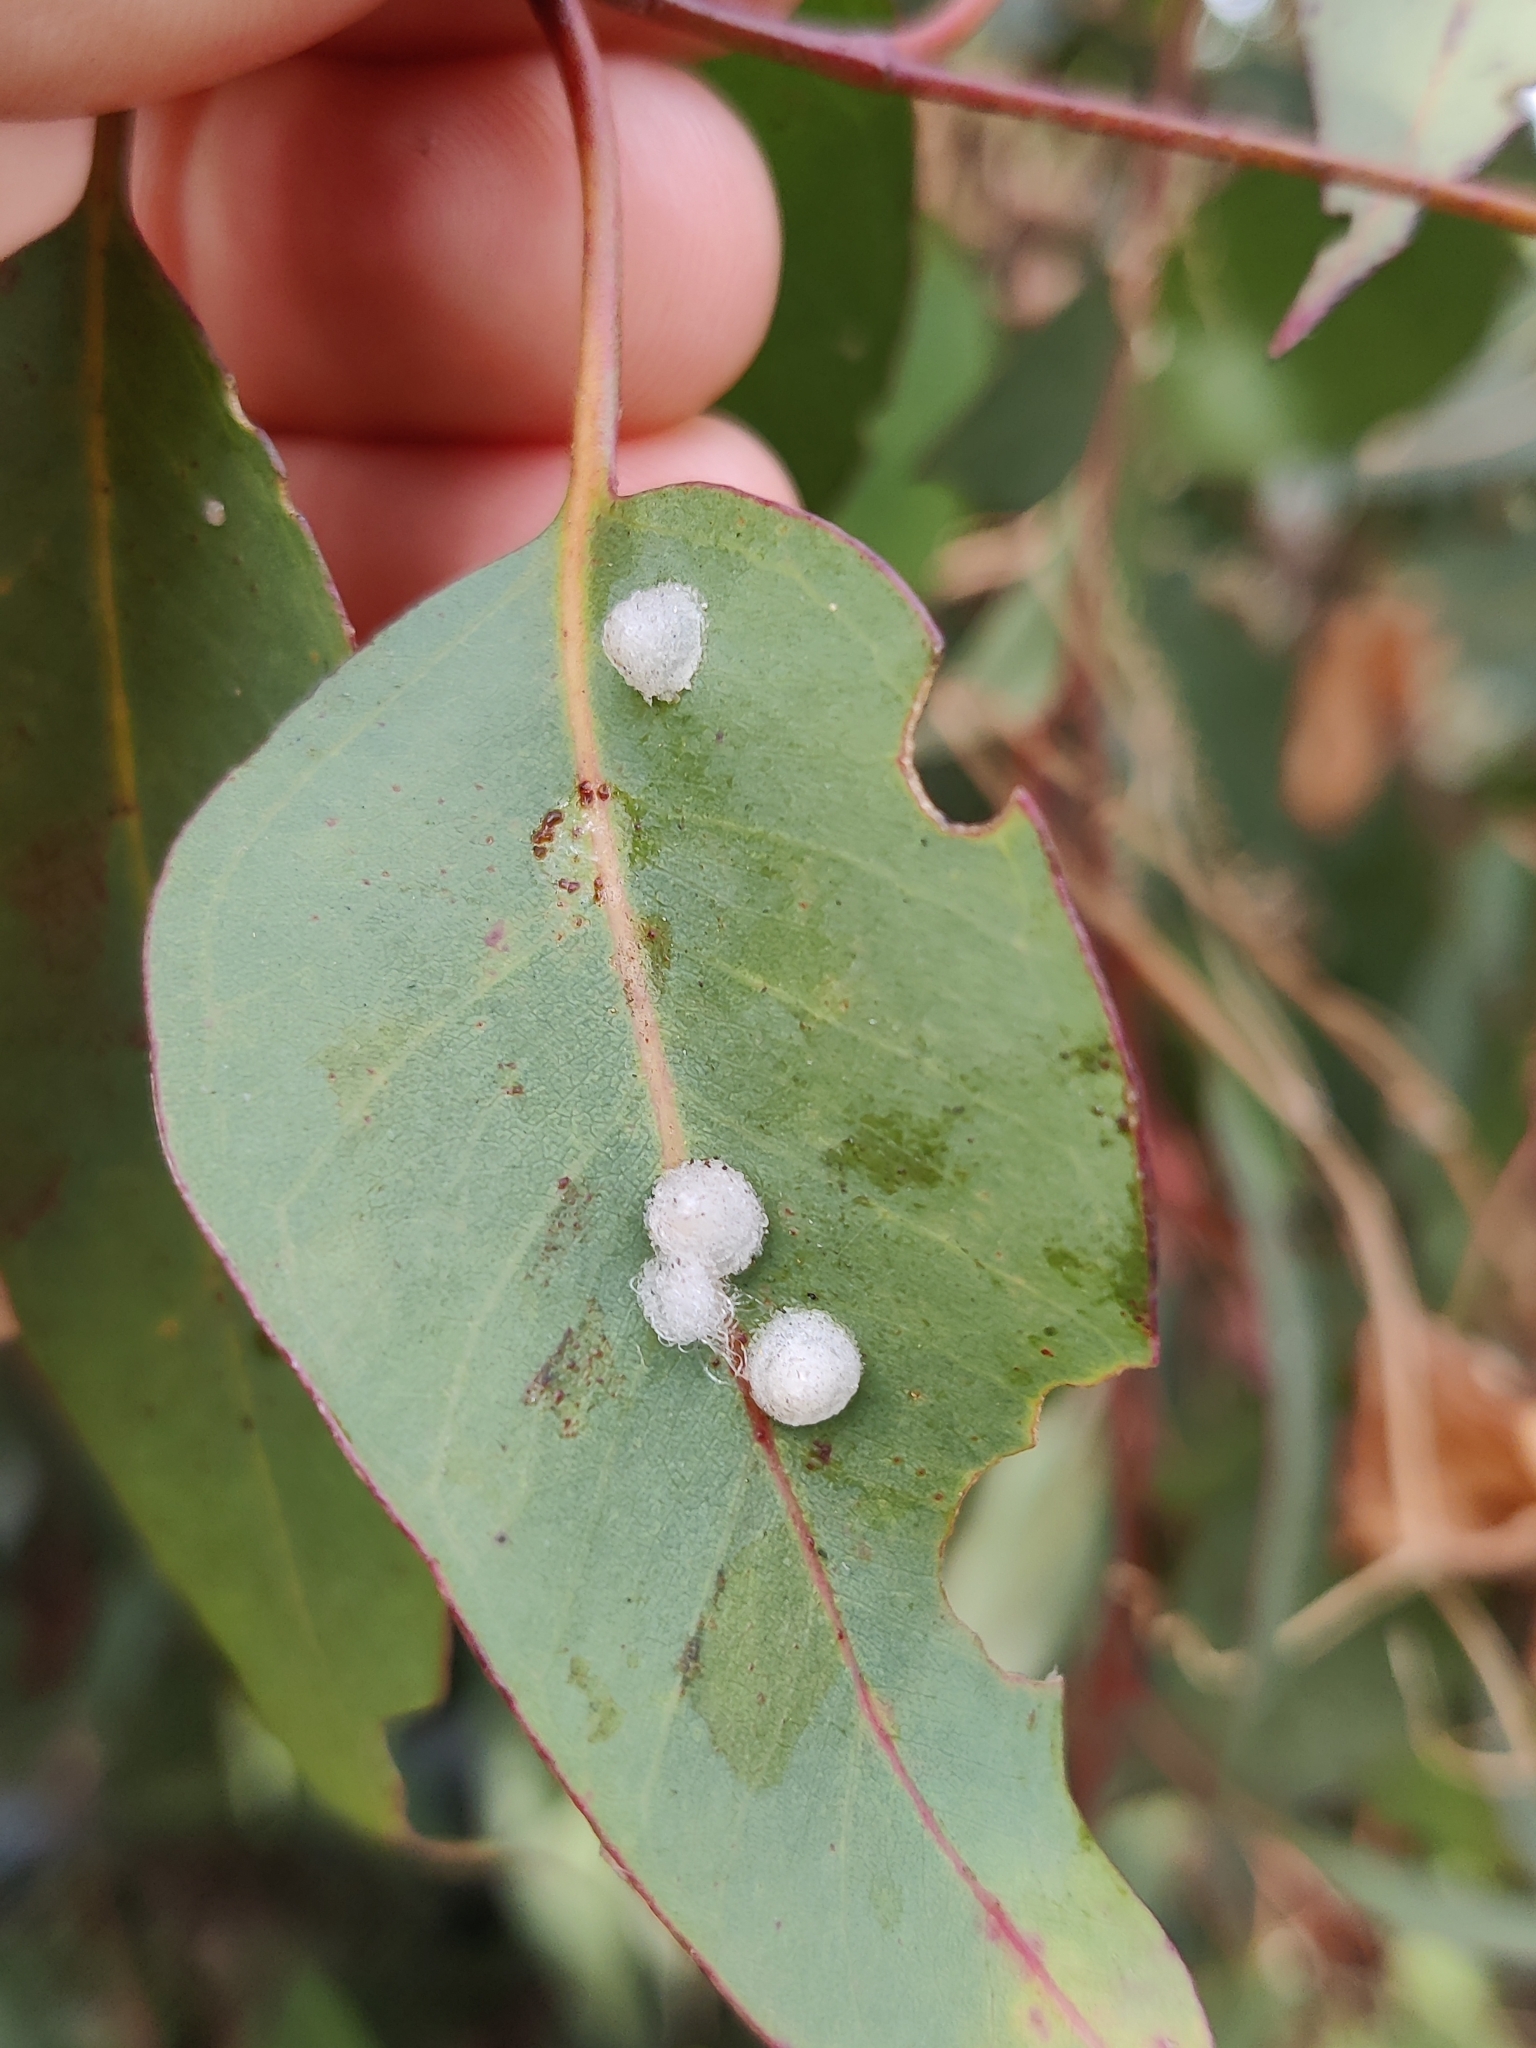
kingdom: Animalia
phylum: Arthropoda
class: Insecta
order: Hemiptera
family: Aphalaridae
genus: Glycaspis
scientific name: Glycaspis brimblecombei
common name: Red gum lerp psyllid
